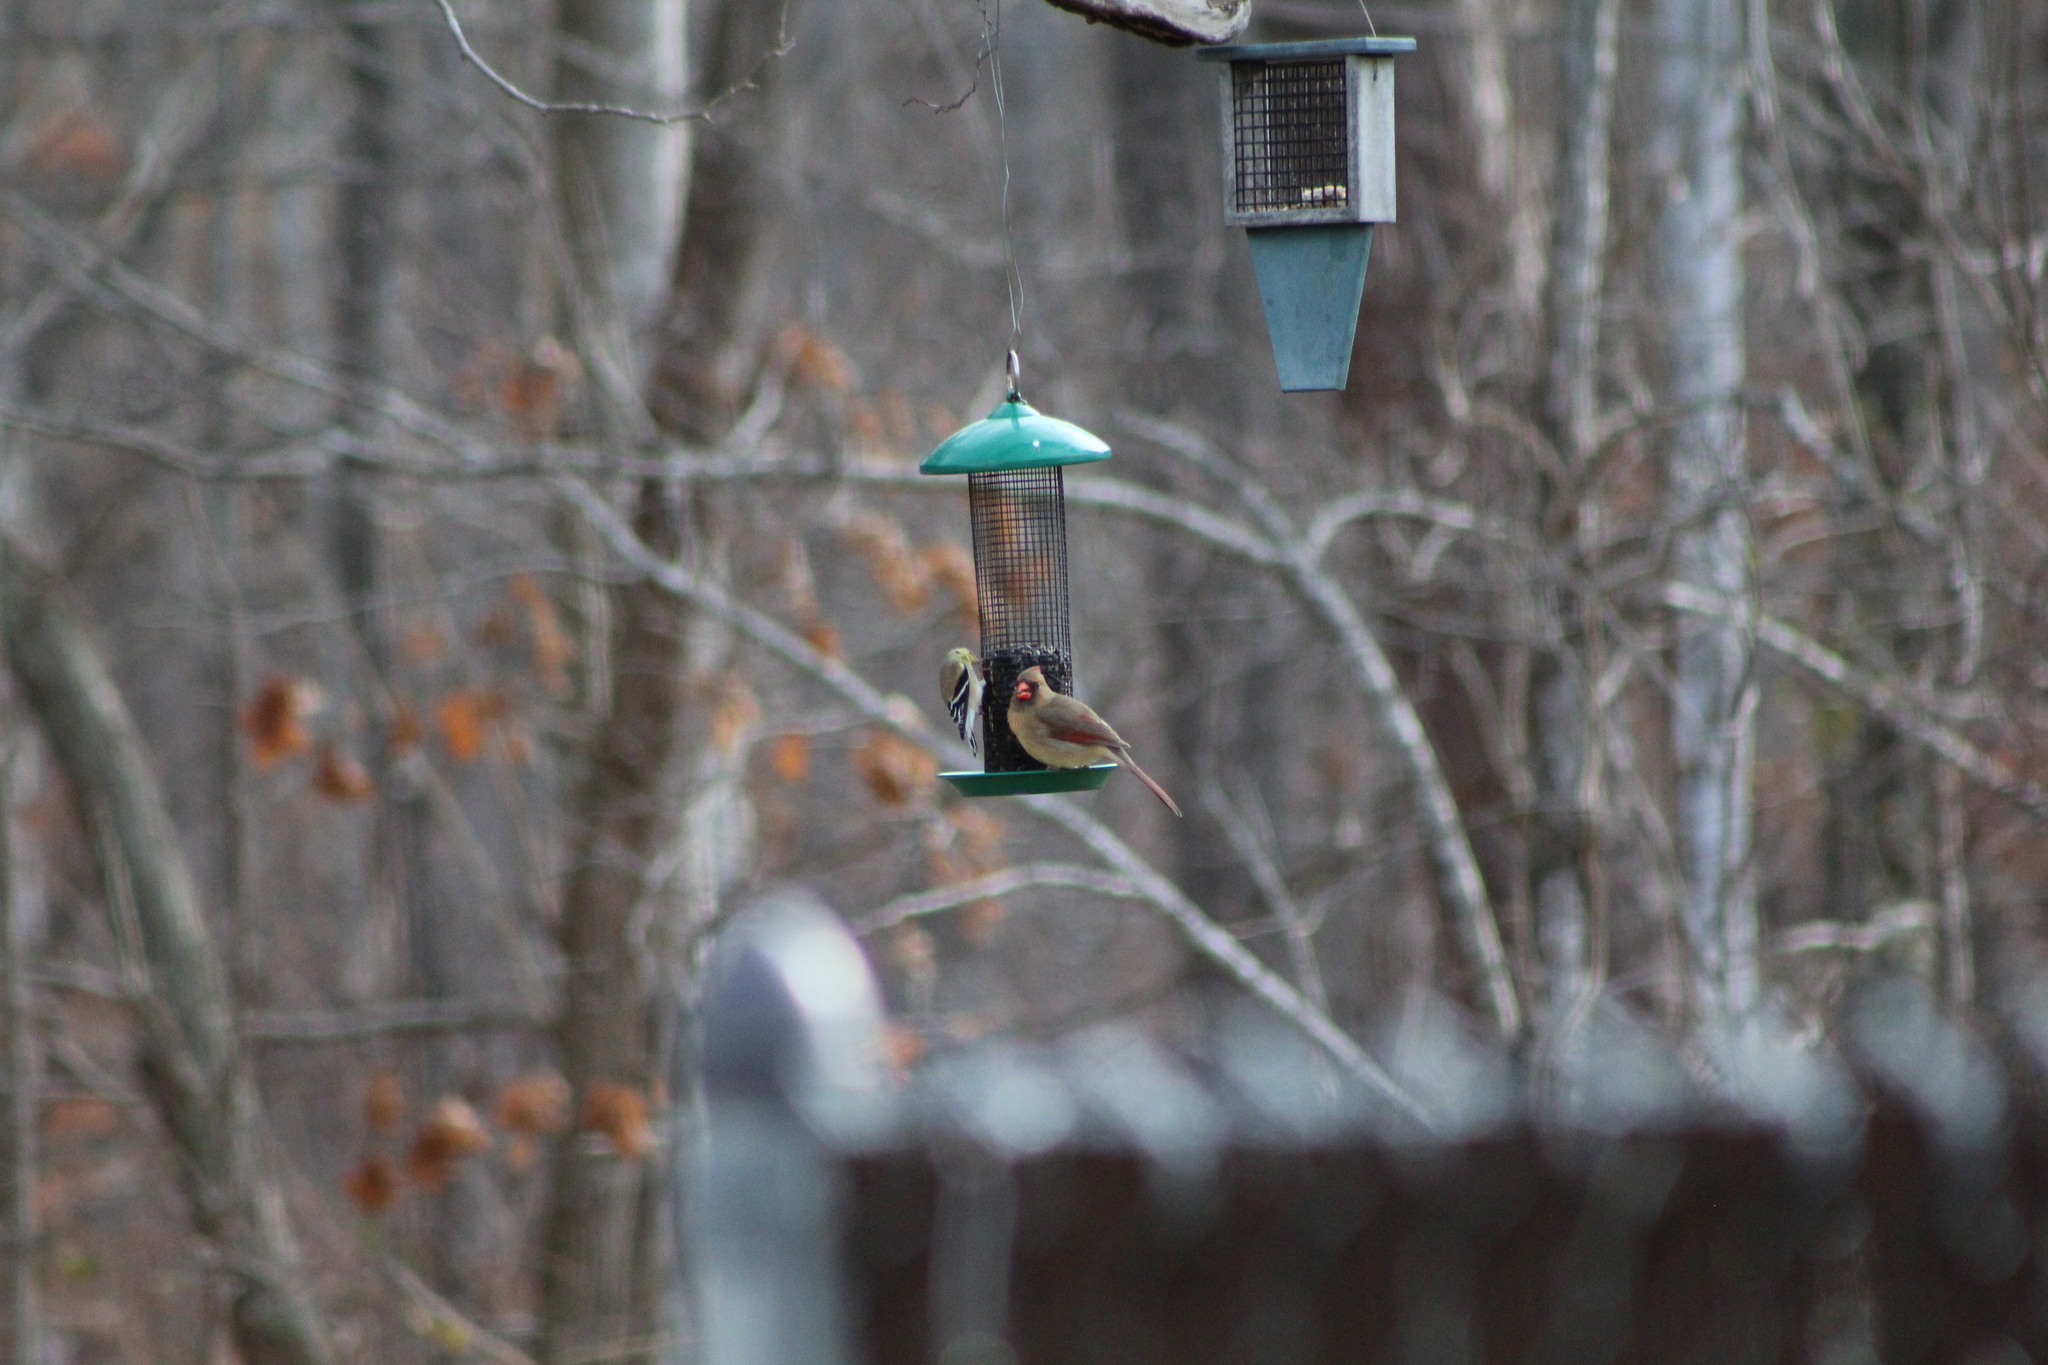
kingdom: Animalia
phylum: Chordata
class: Aves
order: Passeriformes
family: Cardinalidae
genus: Cardinalis
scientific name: Cardinalis cardinalis
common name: Northern cardinal
